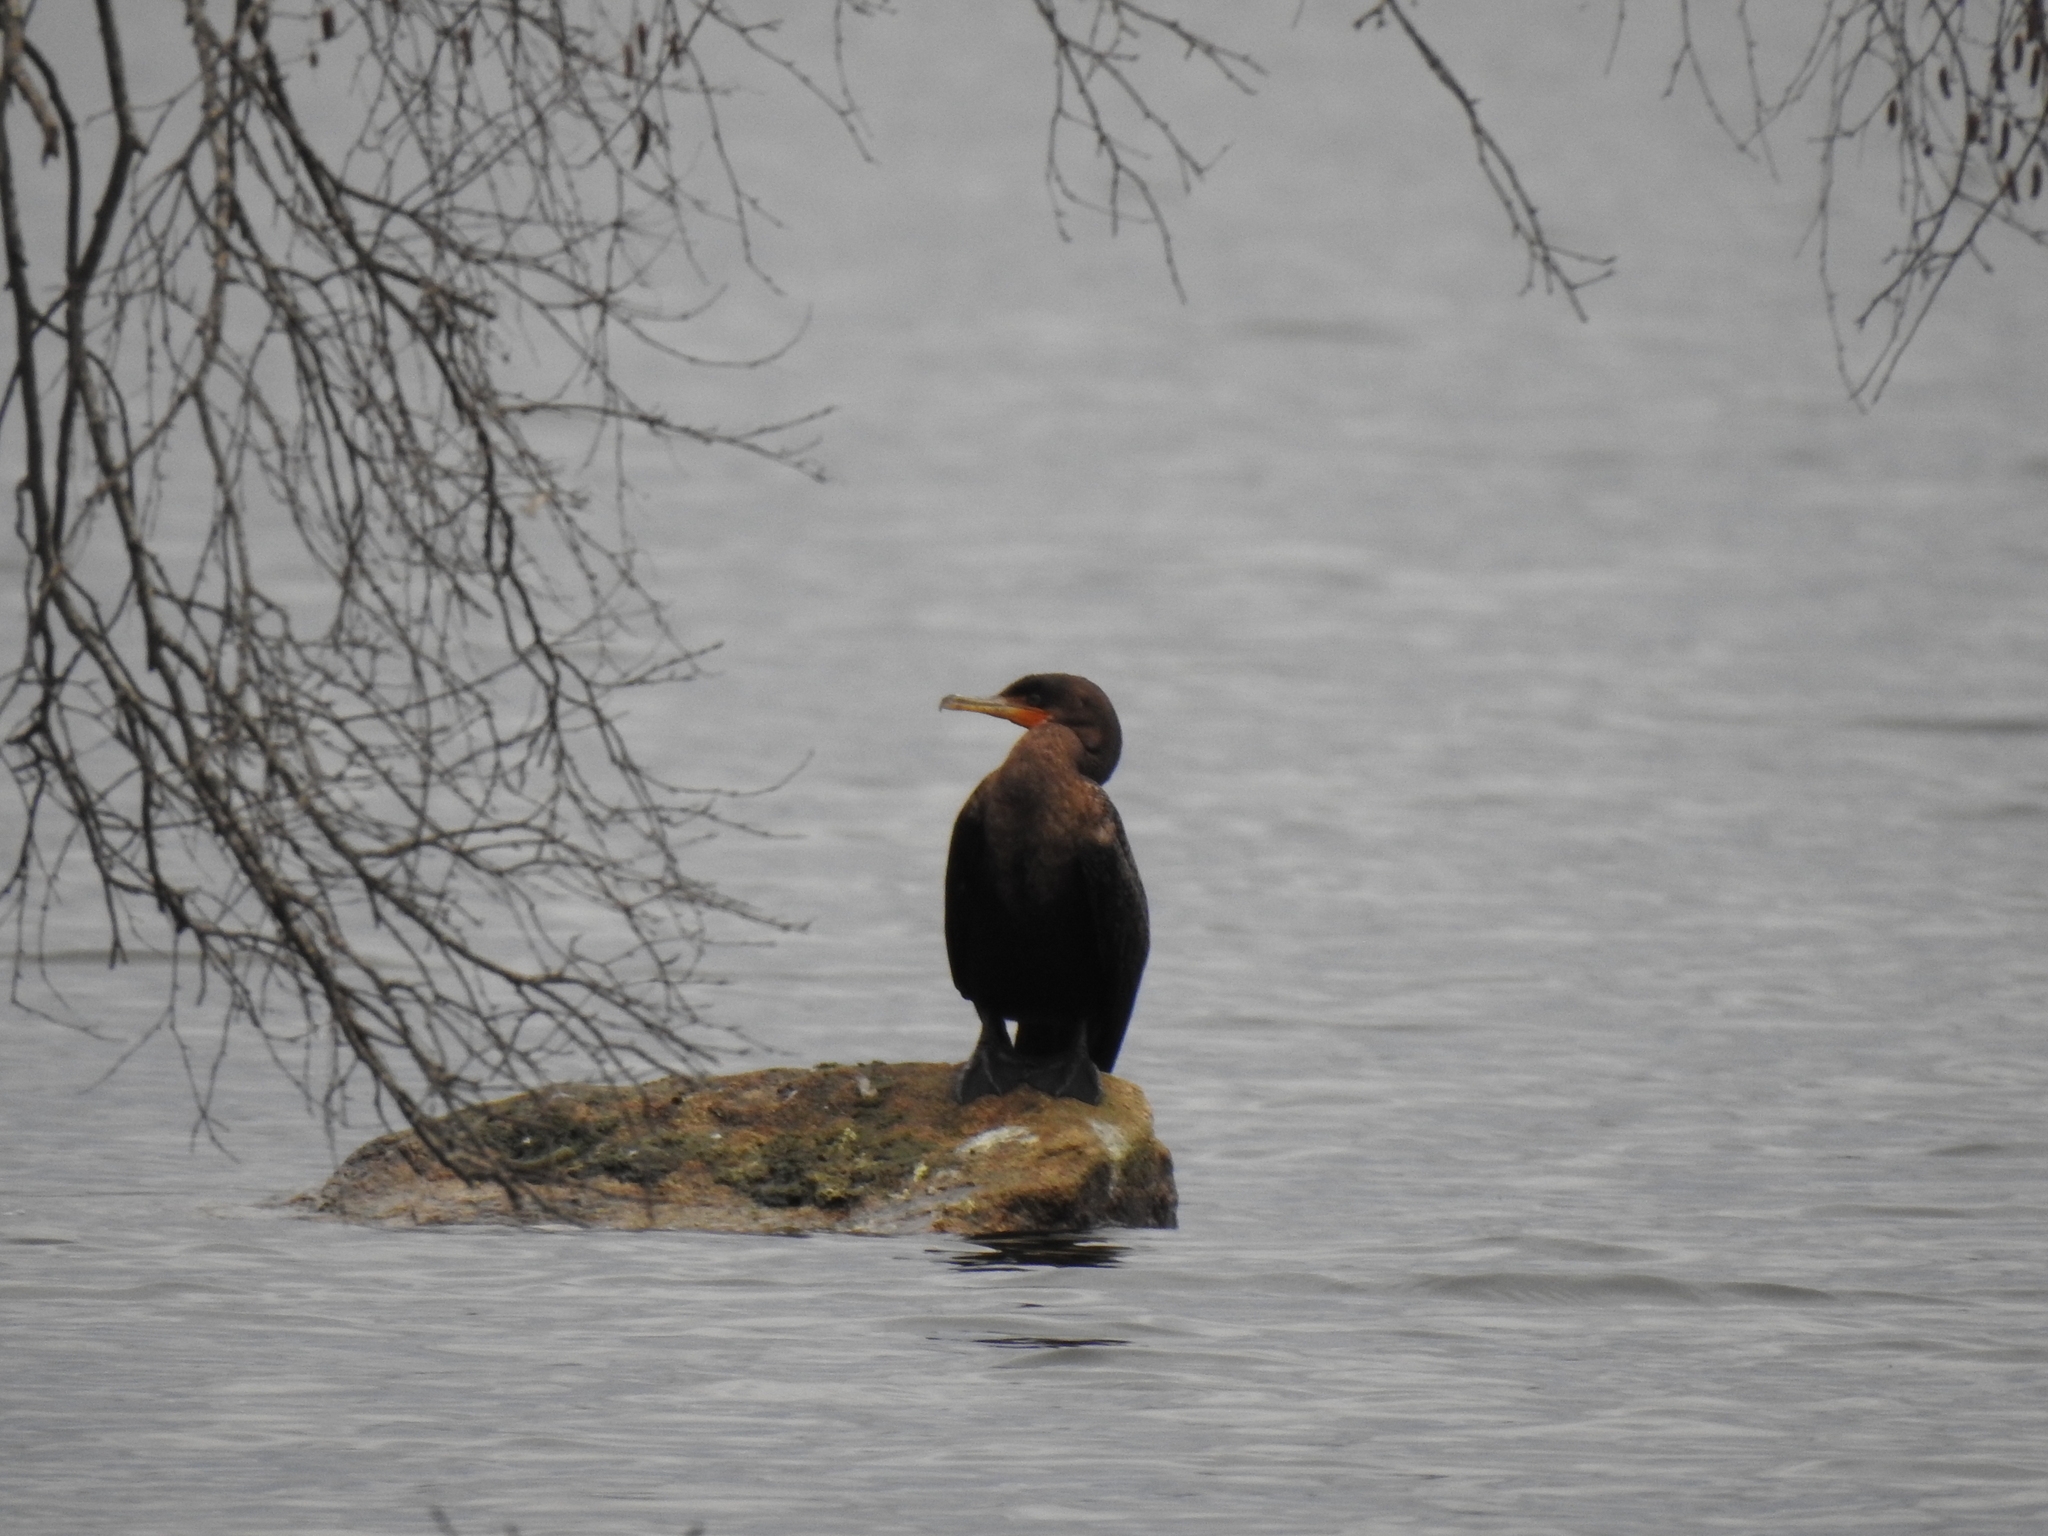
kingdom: Animalia
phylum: Chordata
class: Aves
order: Suliformes
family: Phalacrocoracidae
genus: Phalacrocorax
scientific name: Phalacrocorax auritus
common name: Double-crested cormorant
